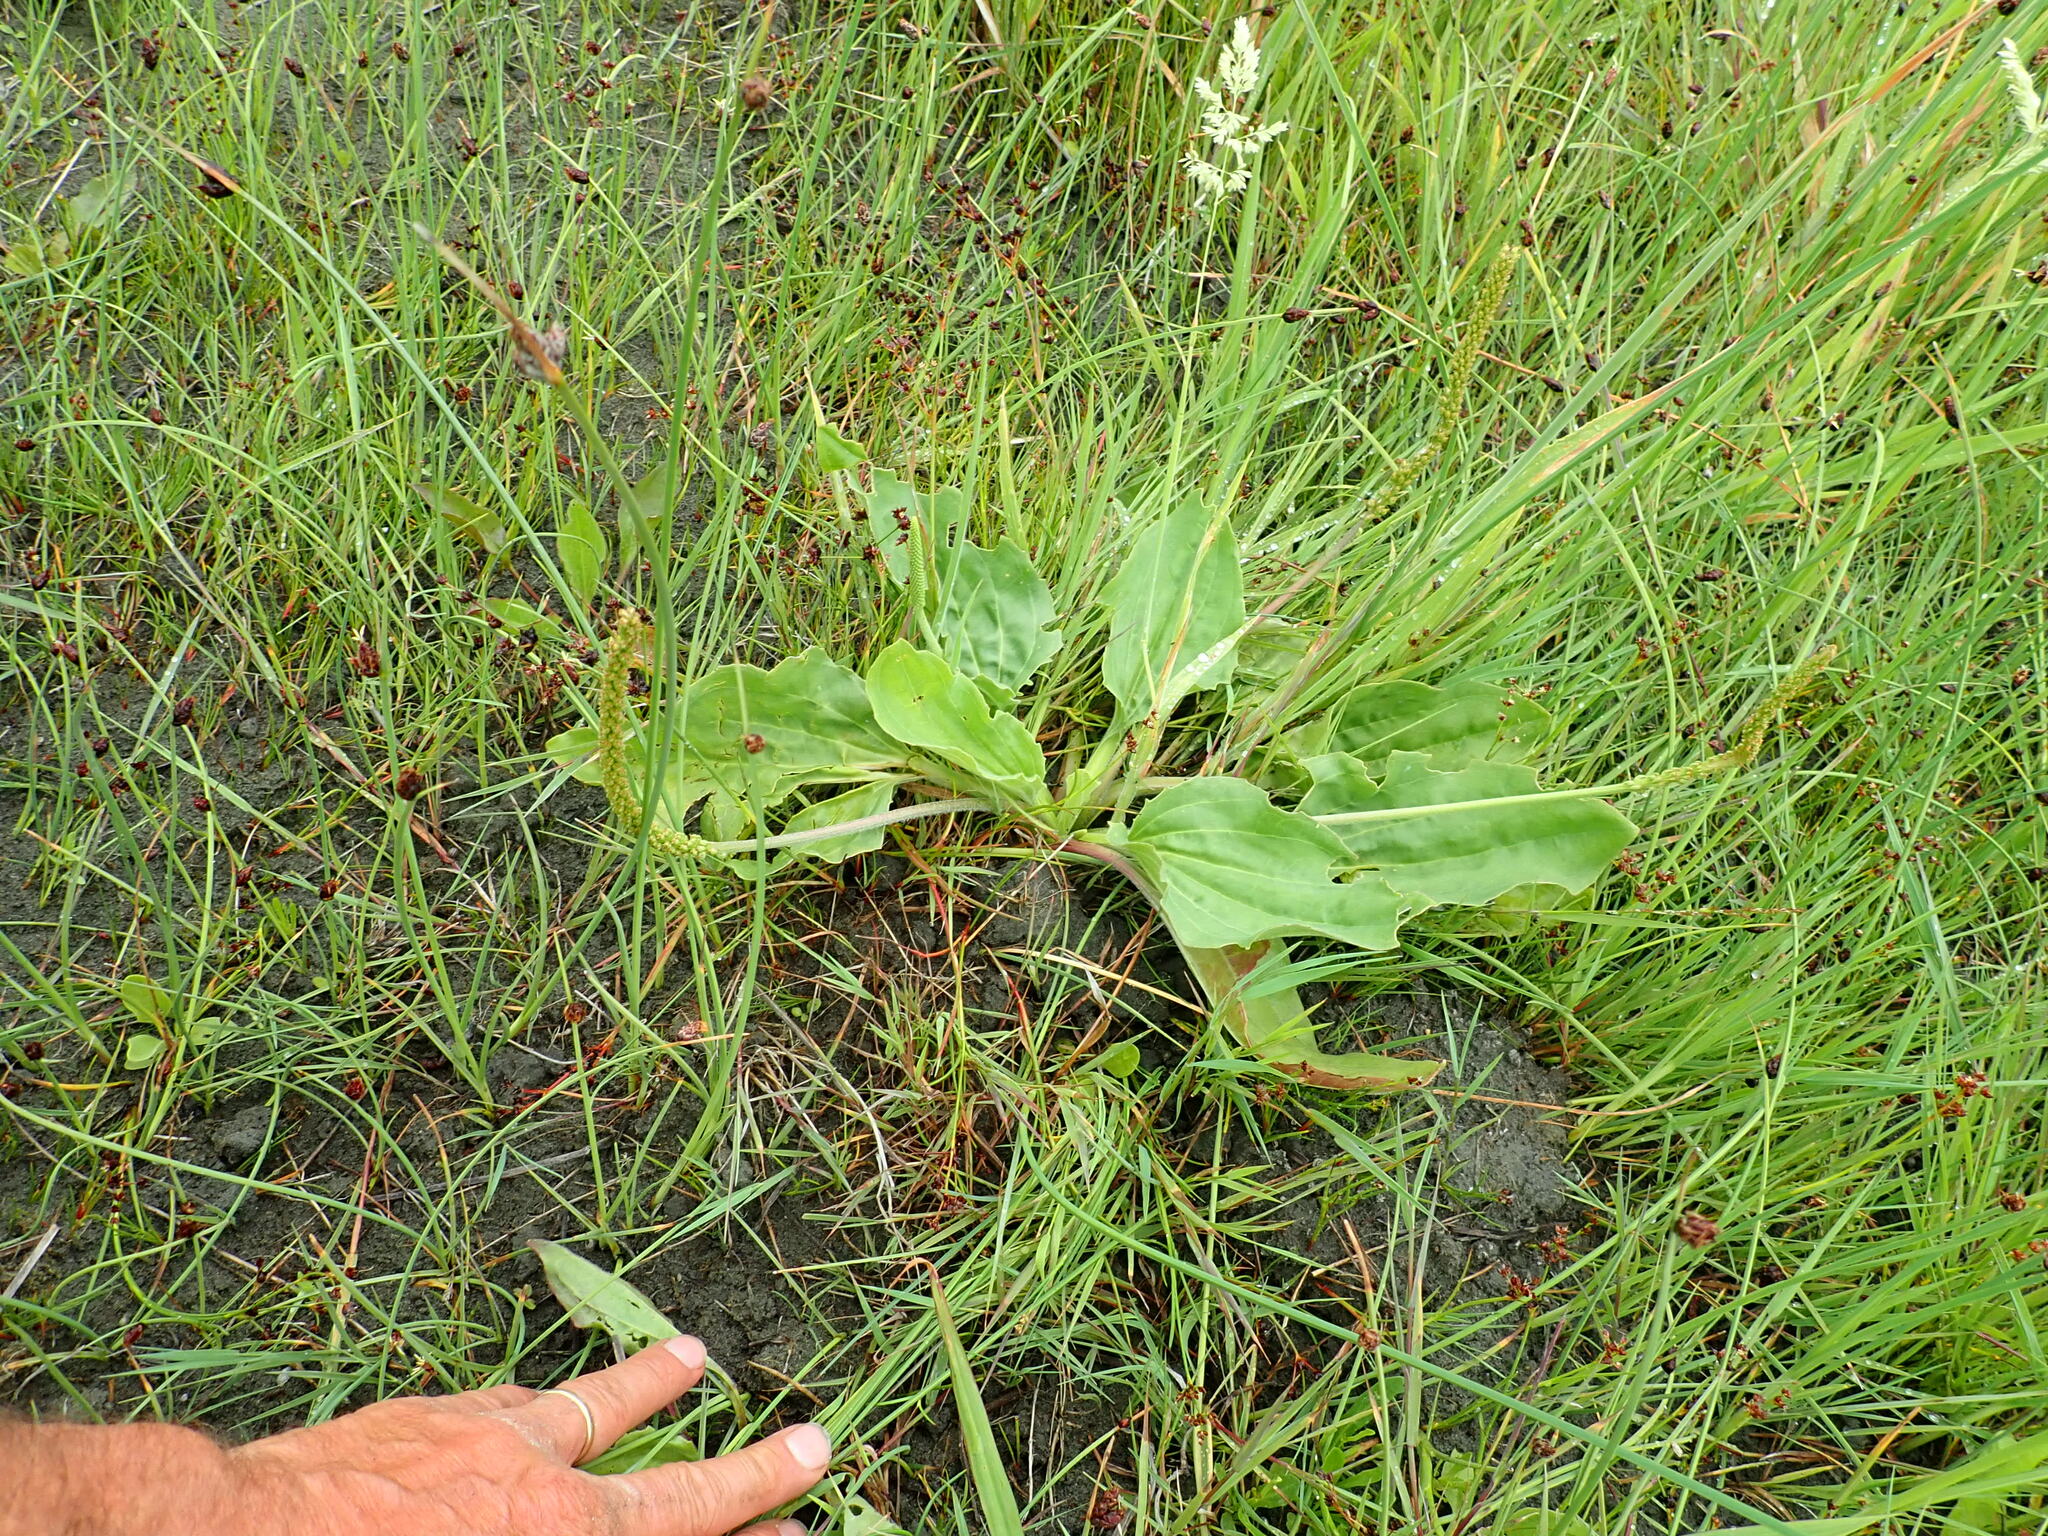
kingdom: Plantae
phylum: Tracheophyta
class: Magnoliopsida
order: Lamiales
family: Plantaginaceae
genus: Plantago
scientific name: Plantago major
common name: Common plantain
